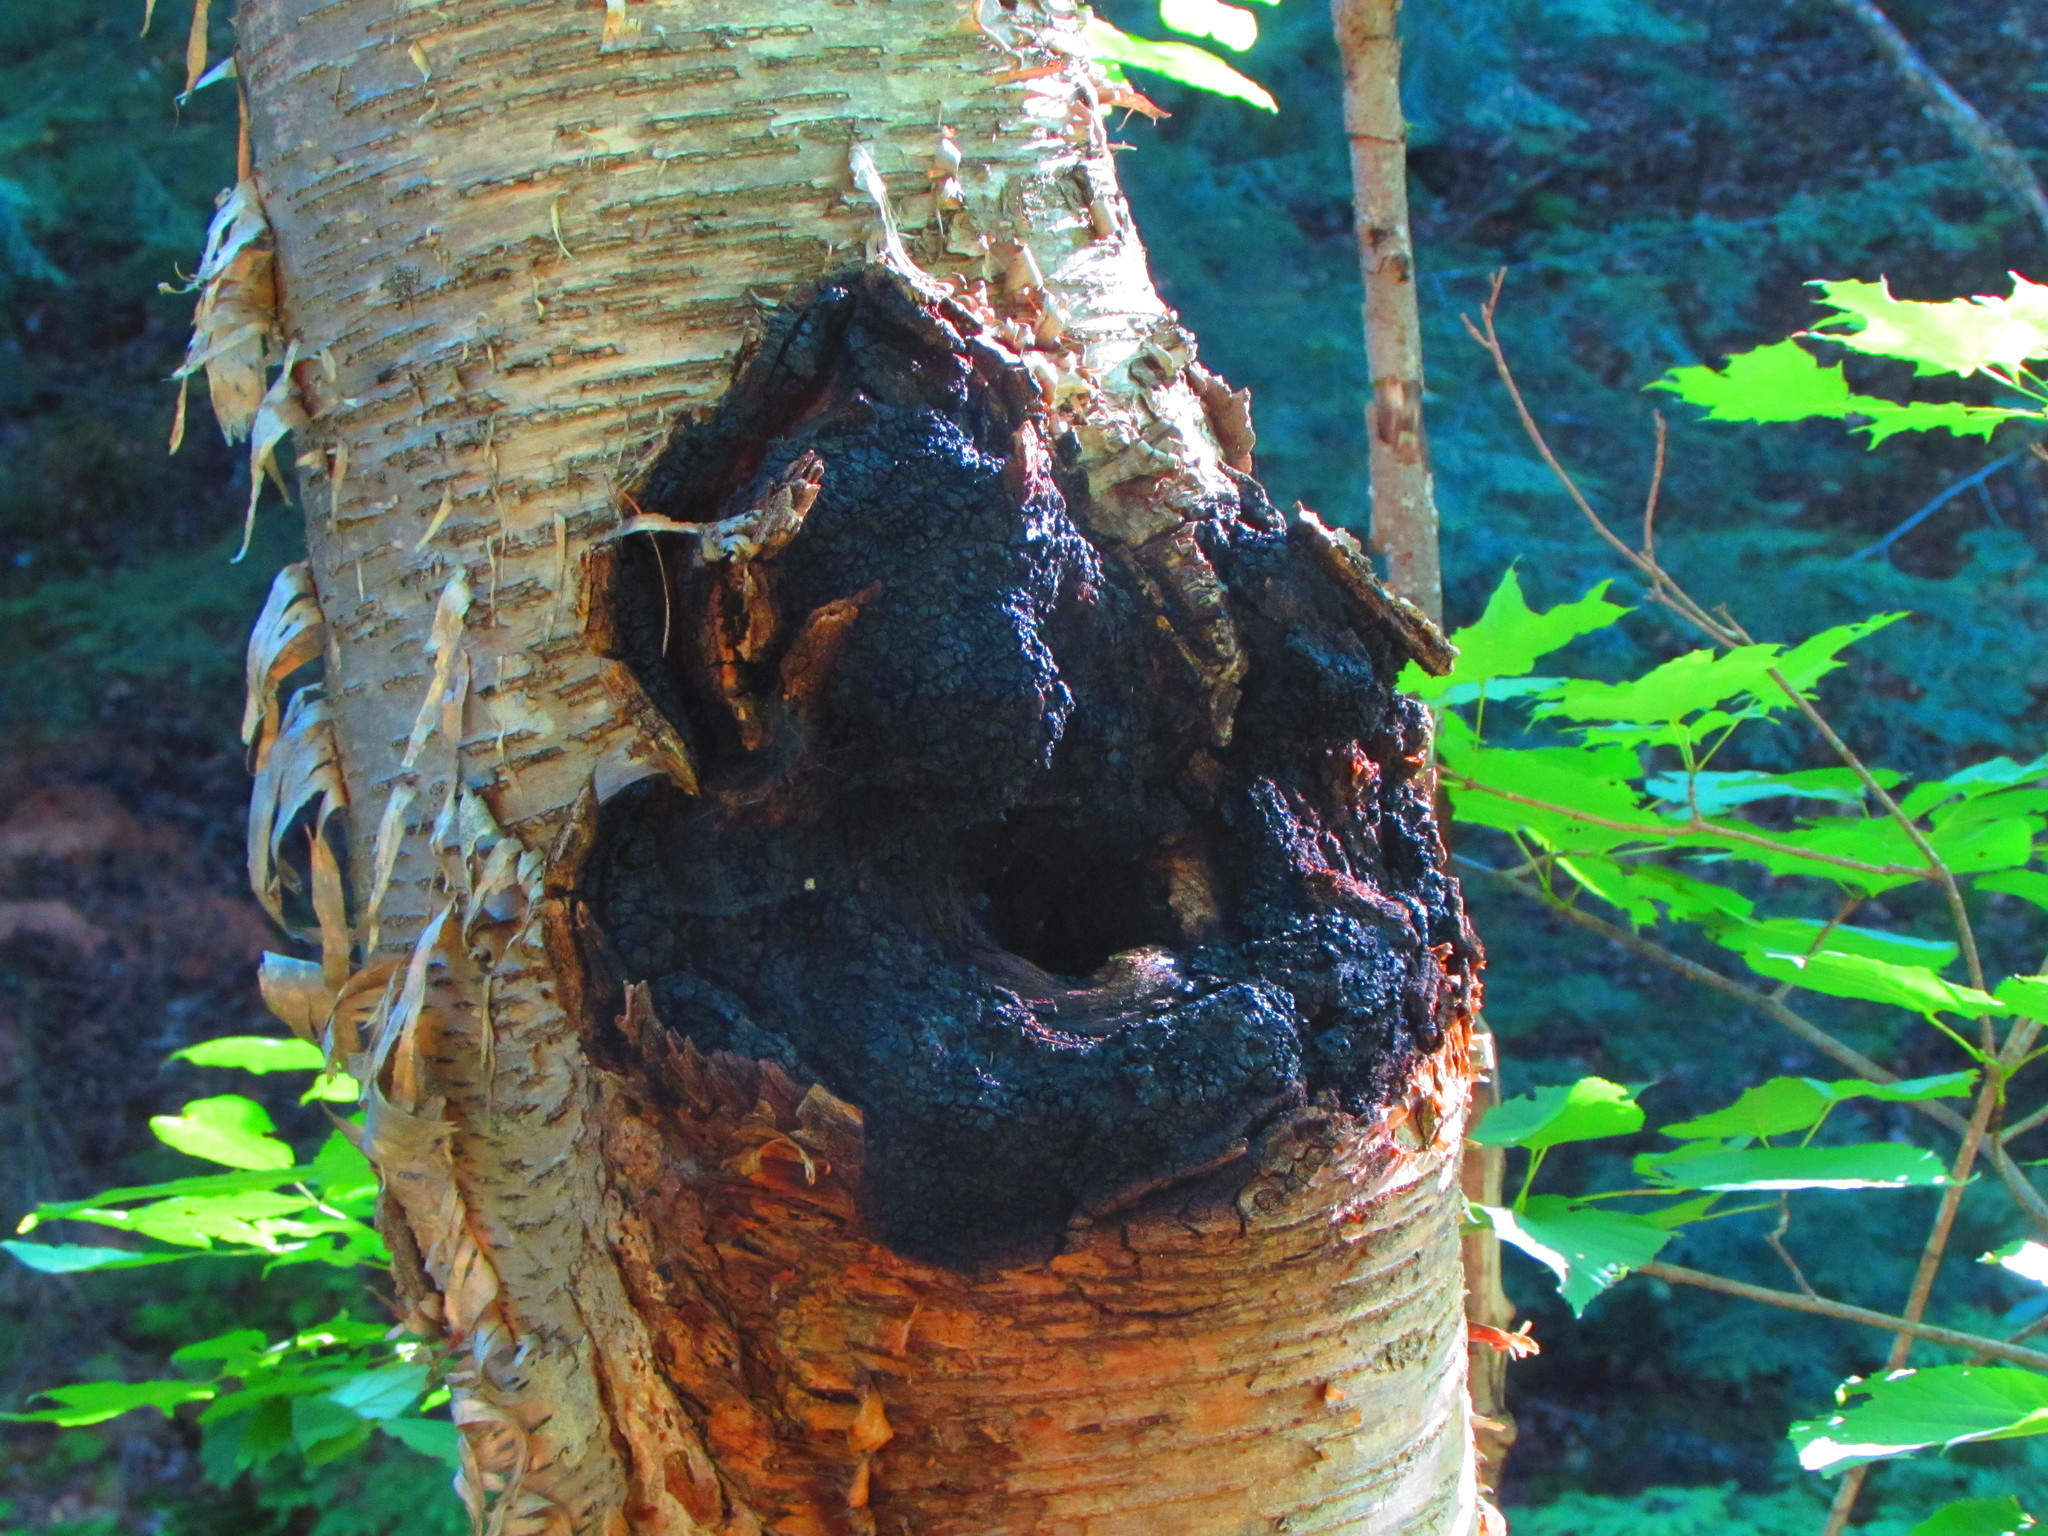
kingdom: Fungi
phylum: Basidiomycota
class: Agaricomycetes
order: Hymenochaetales
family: Hymenochaetaceae
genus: Inonotus
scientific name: Inonotus obliquus
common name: Chaga
